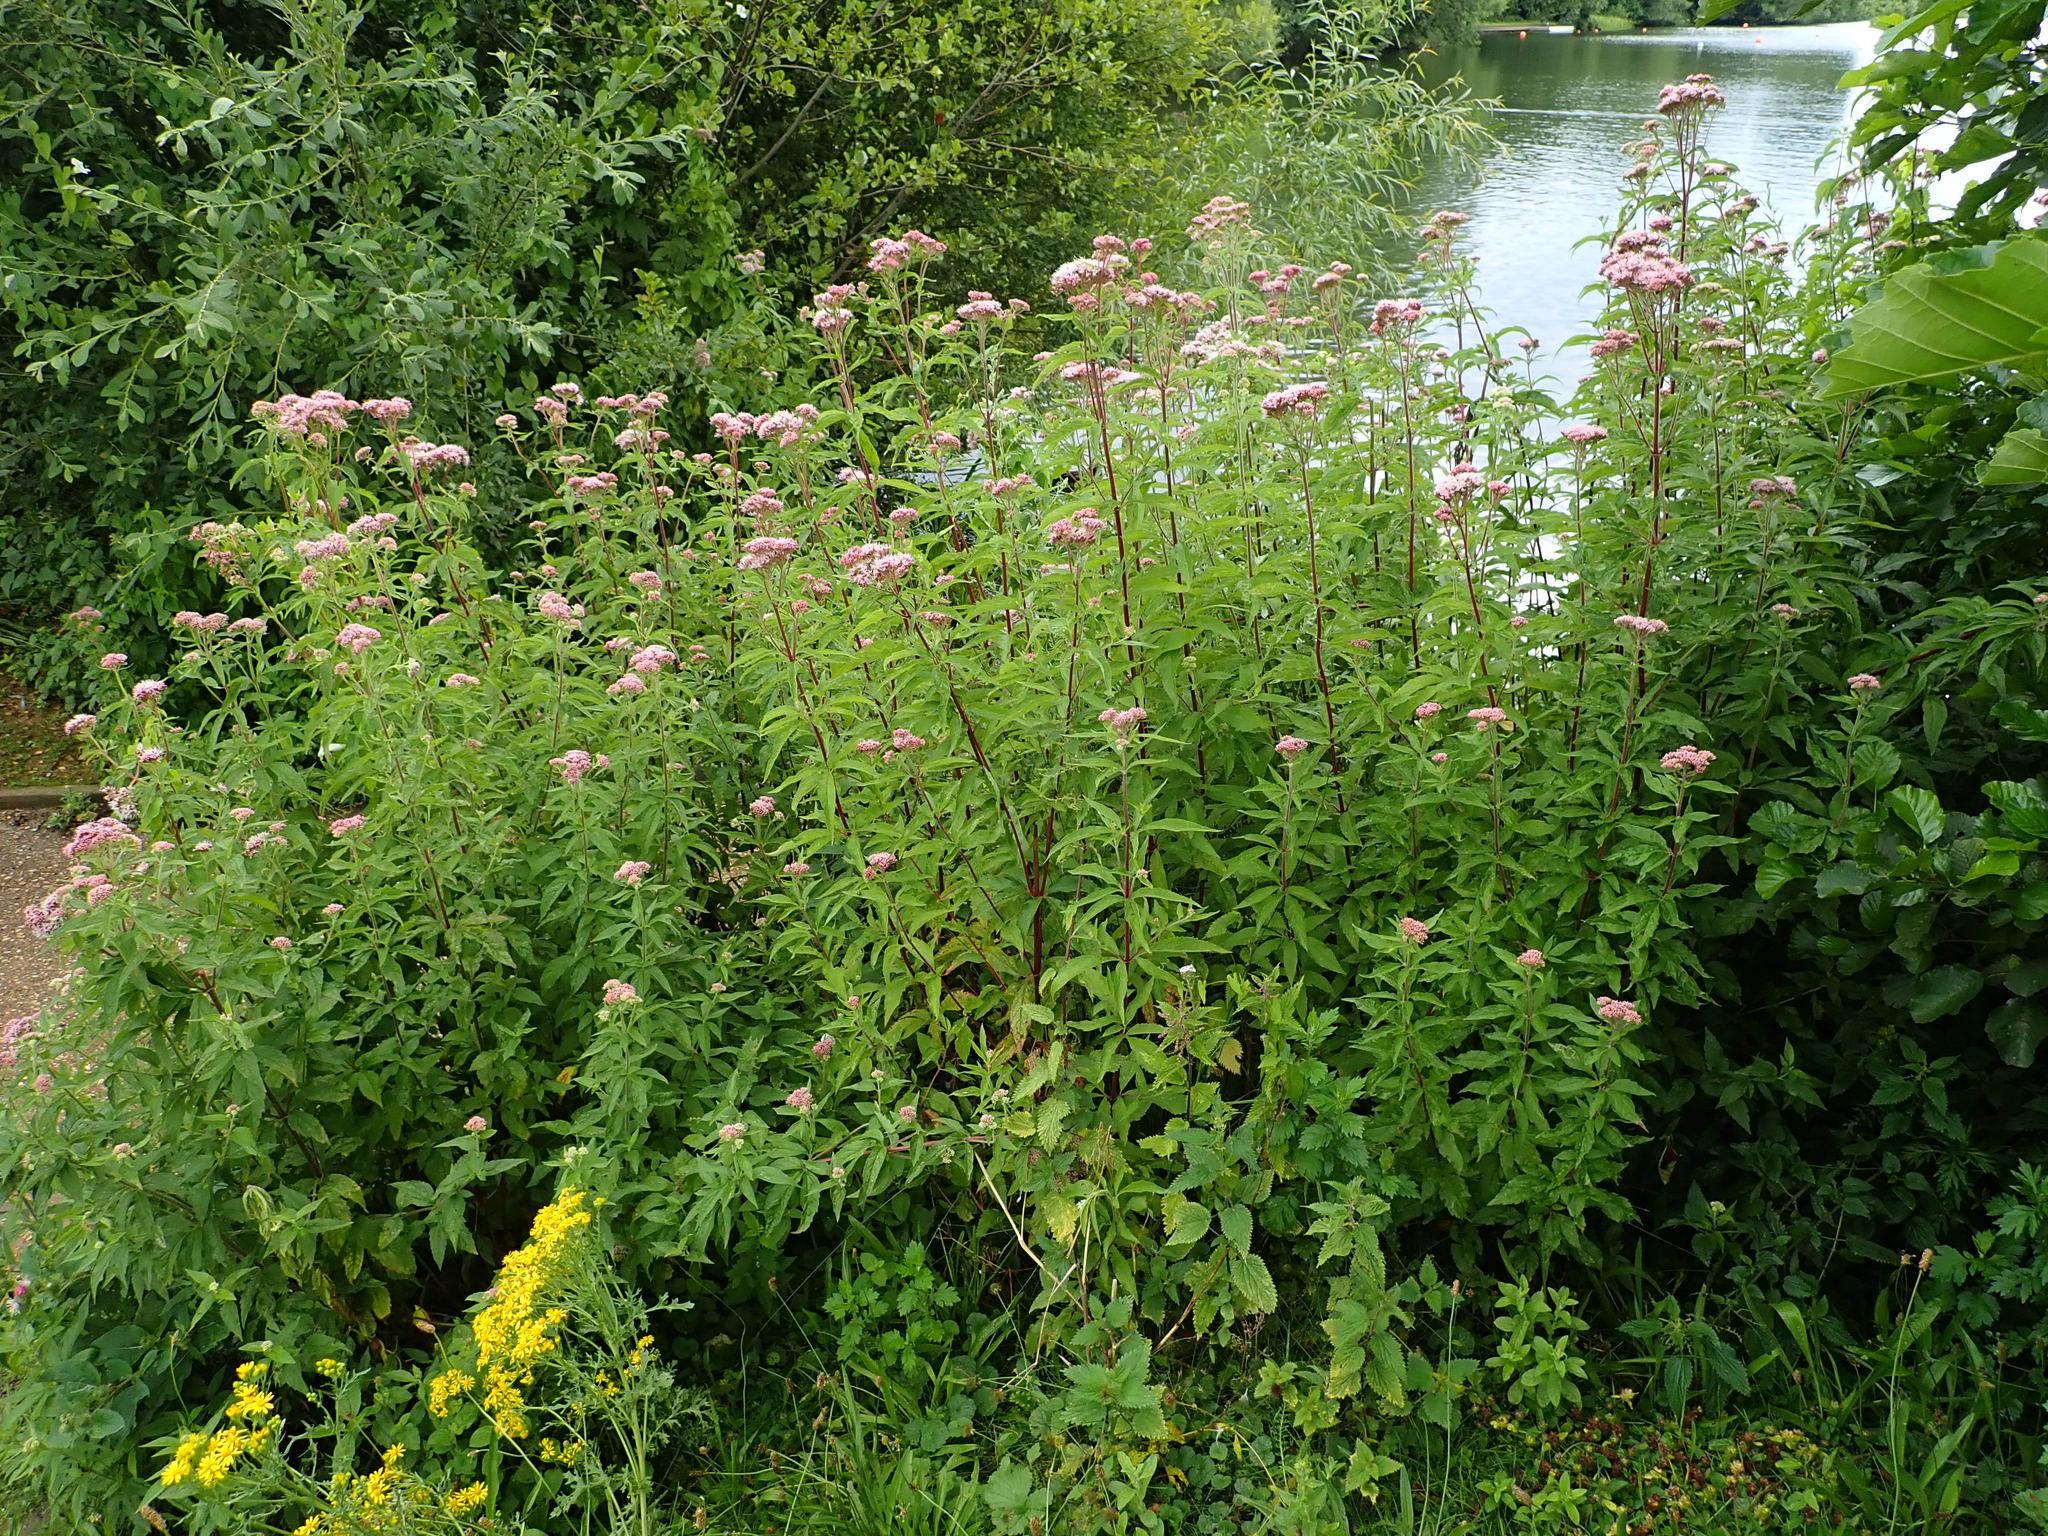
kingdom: Plantae
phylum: Tracheophyta
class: Magnoliopsida
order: Asterales
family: Asteraceae
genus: Eupatorium
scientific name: Eupatorium cannabinum
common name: Hemp-agrimony
